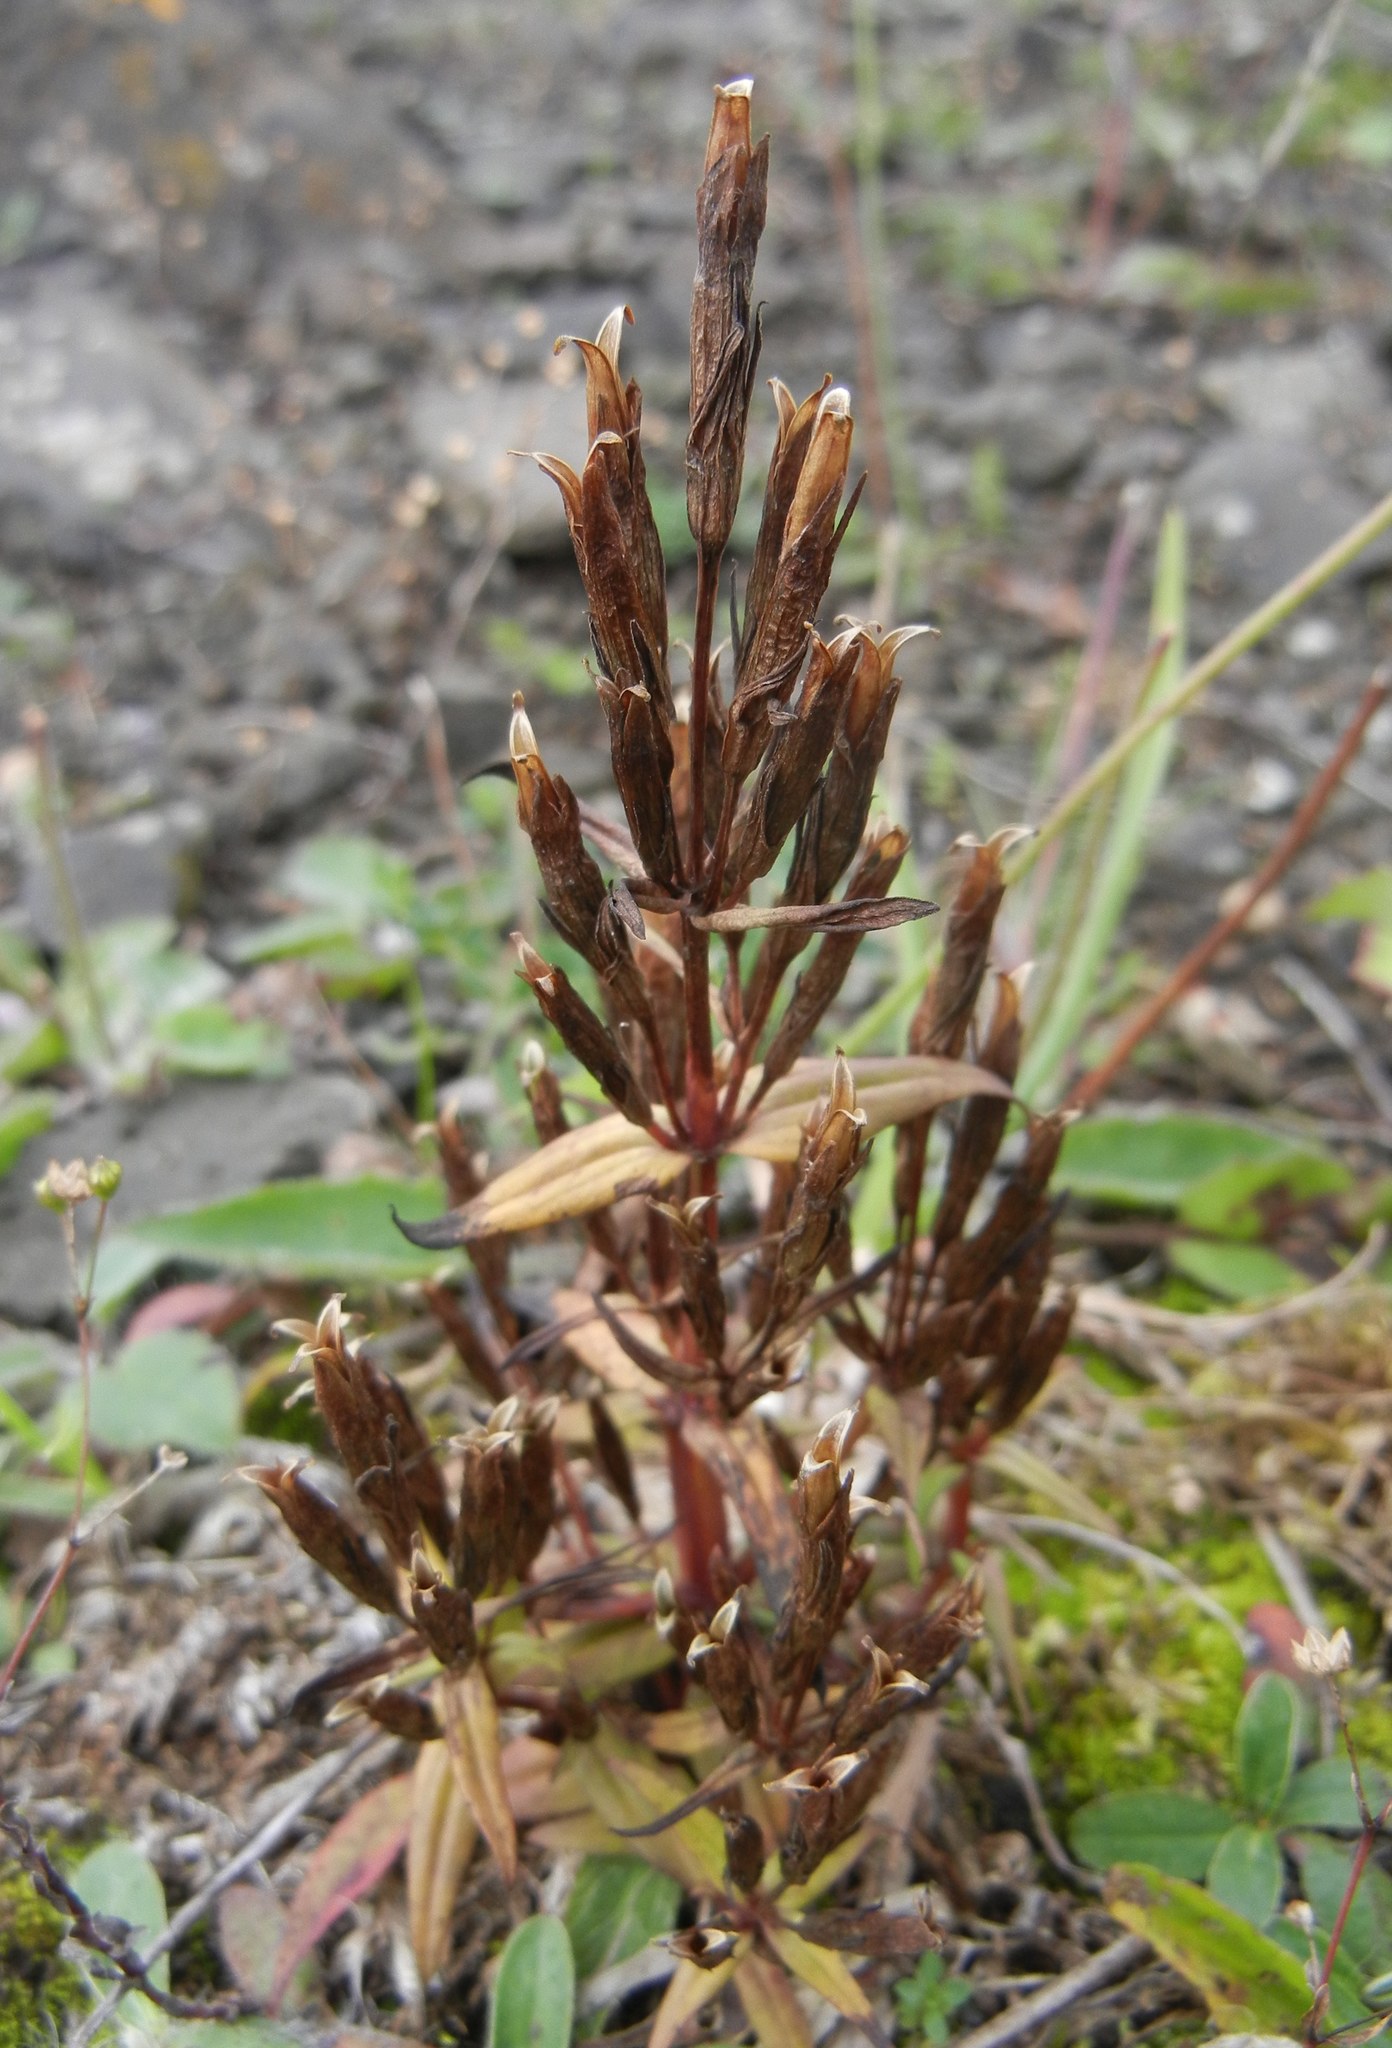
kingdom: Plantae
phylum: Tracheophyta
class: Magnoliopsida
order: Gentianales
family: Gentianaceae
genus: Gentianella
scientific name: Gentianella amarella
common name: Autumn gentian
